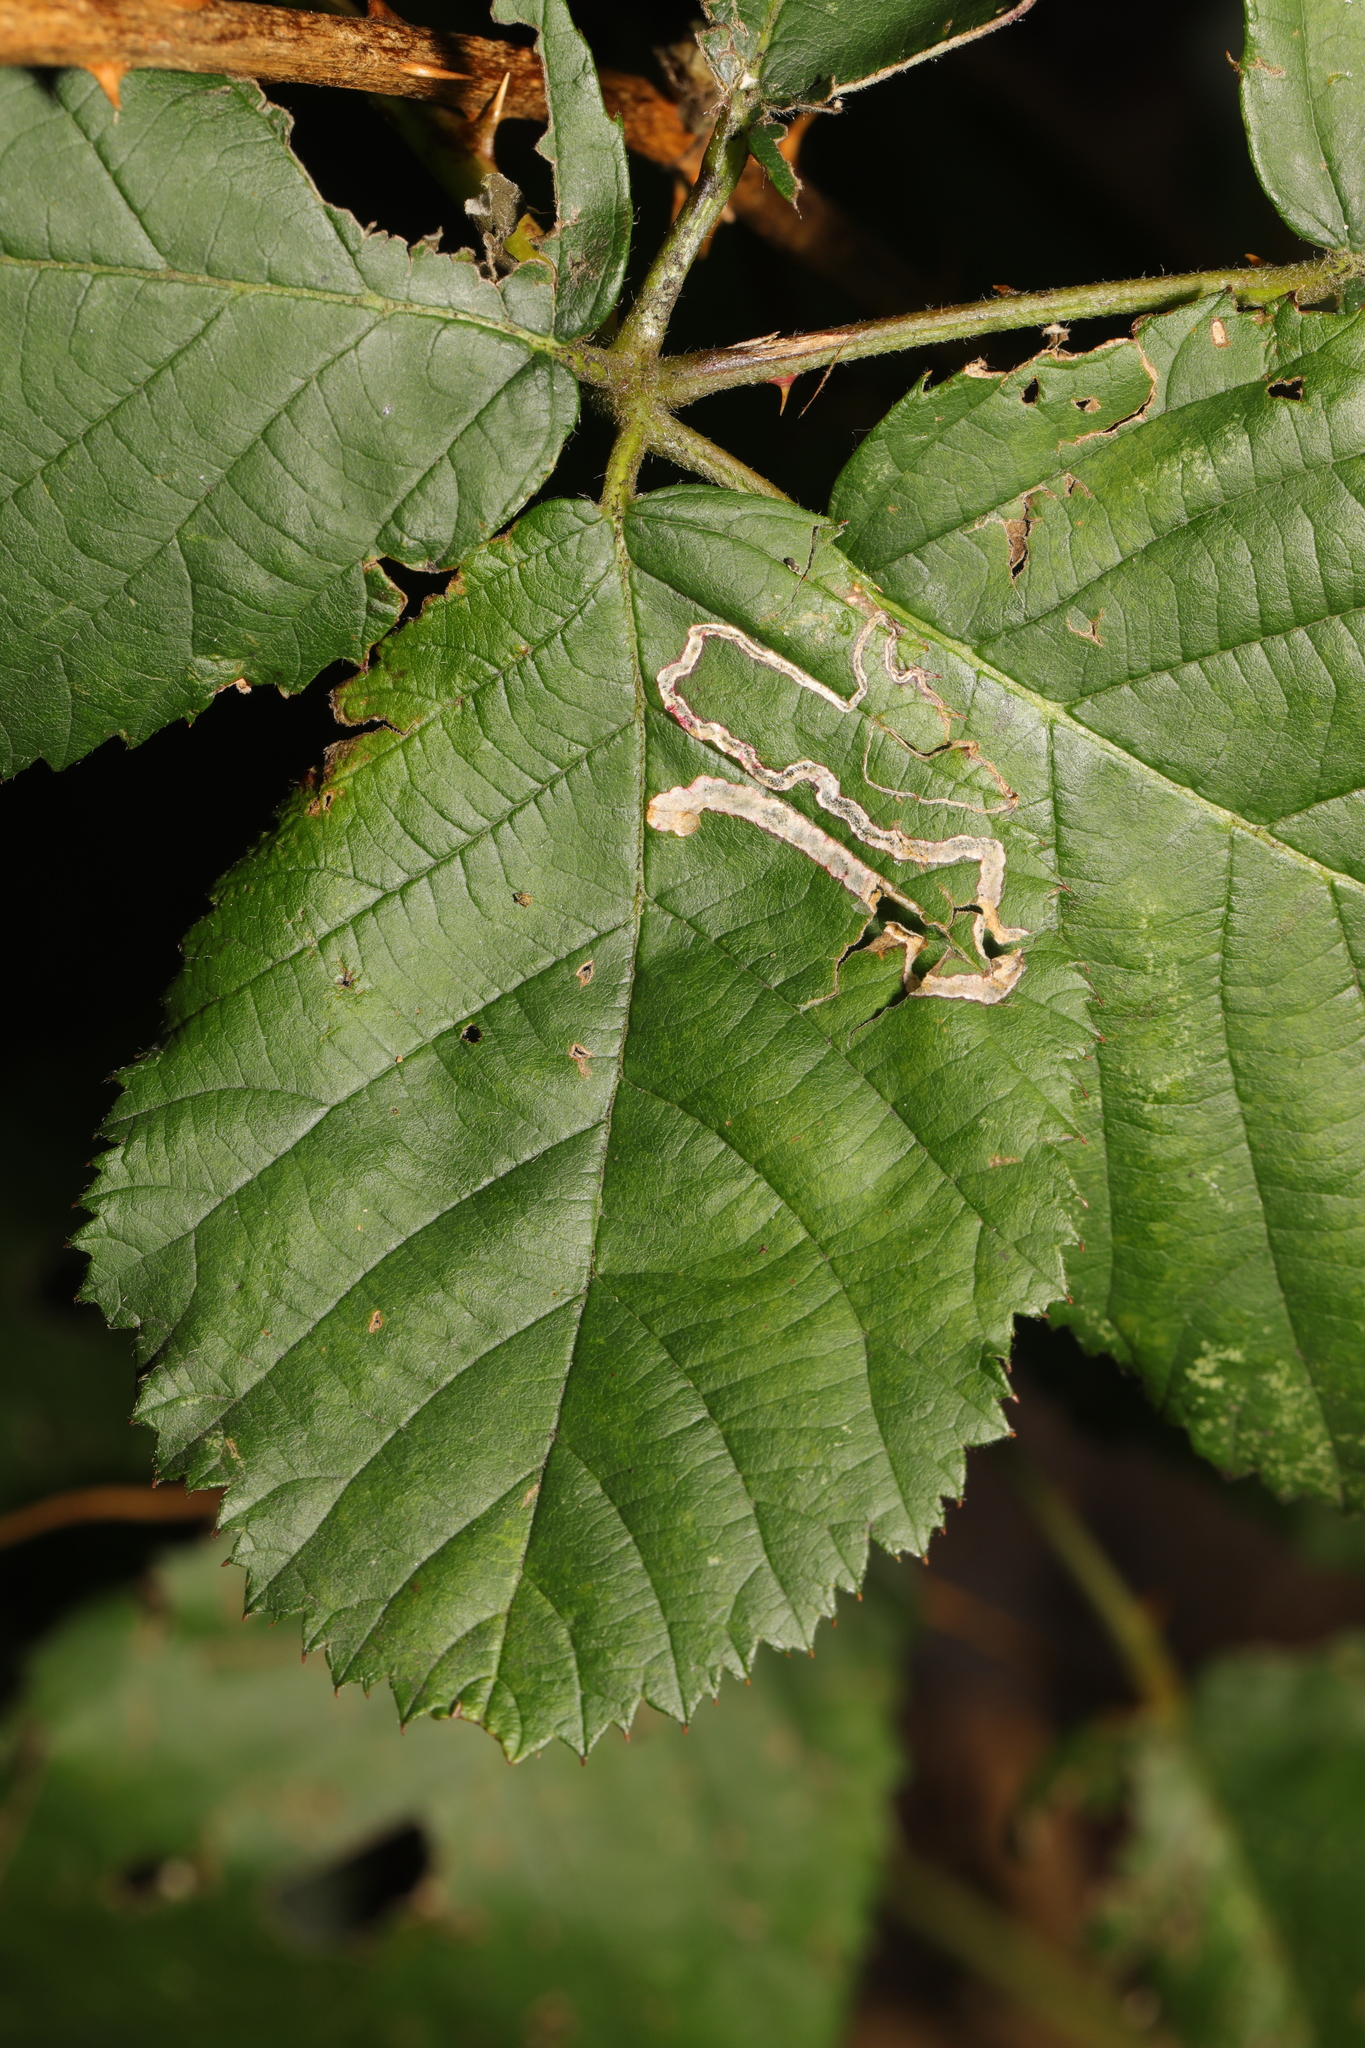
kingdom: Animalia
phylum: Arthropoda
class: Insecta
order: Lepidoptera
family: Nepticulidae
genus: Stigmella
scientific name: Stigmella aurella
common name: Golden pigmy
